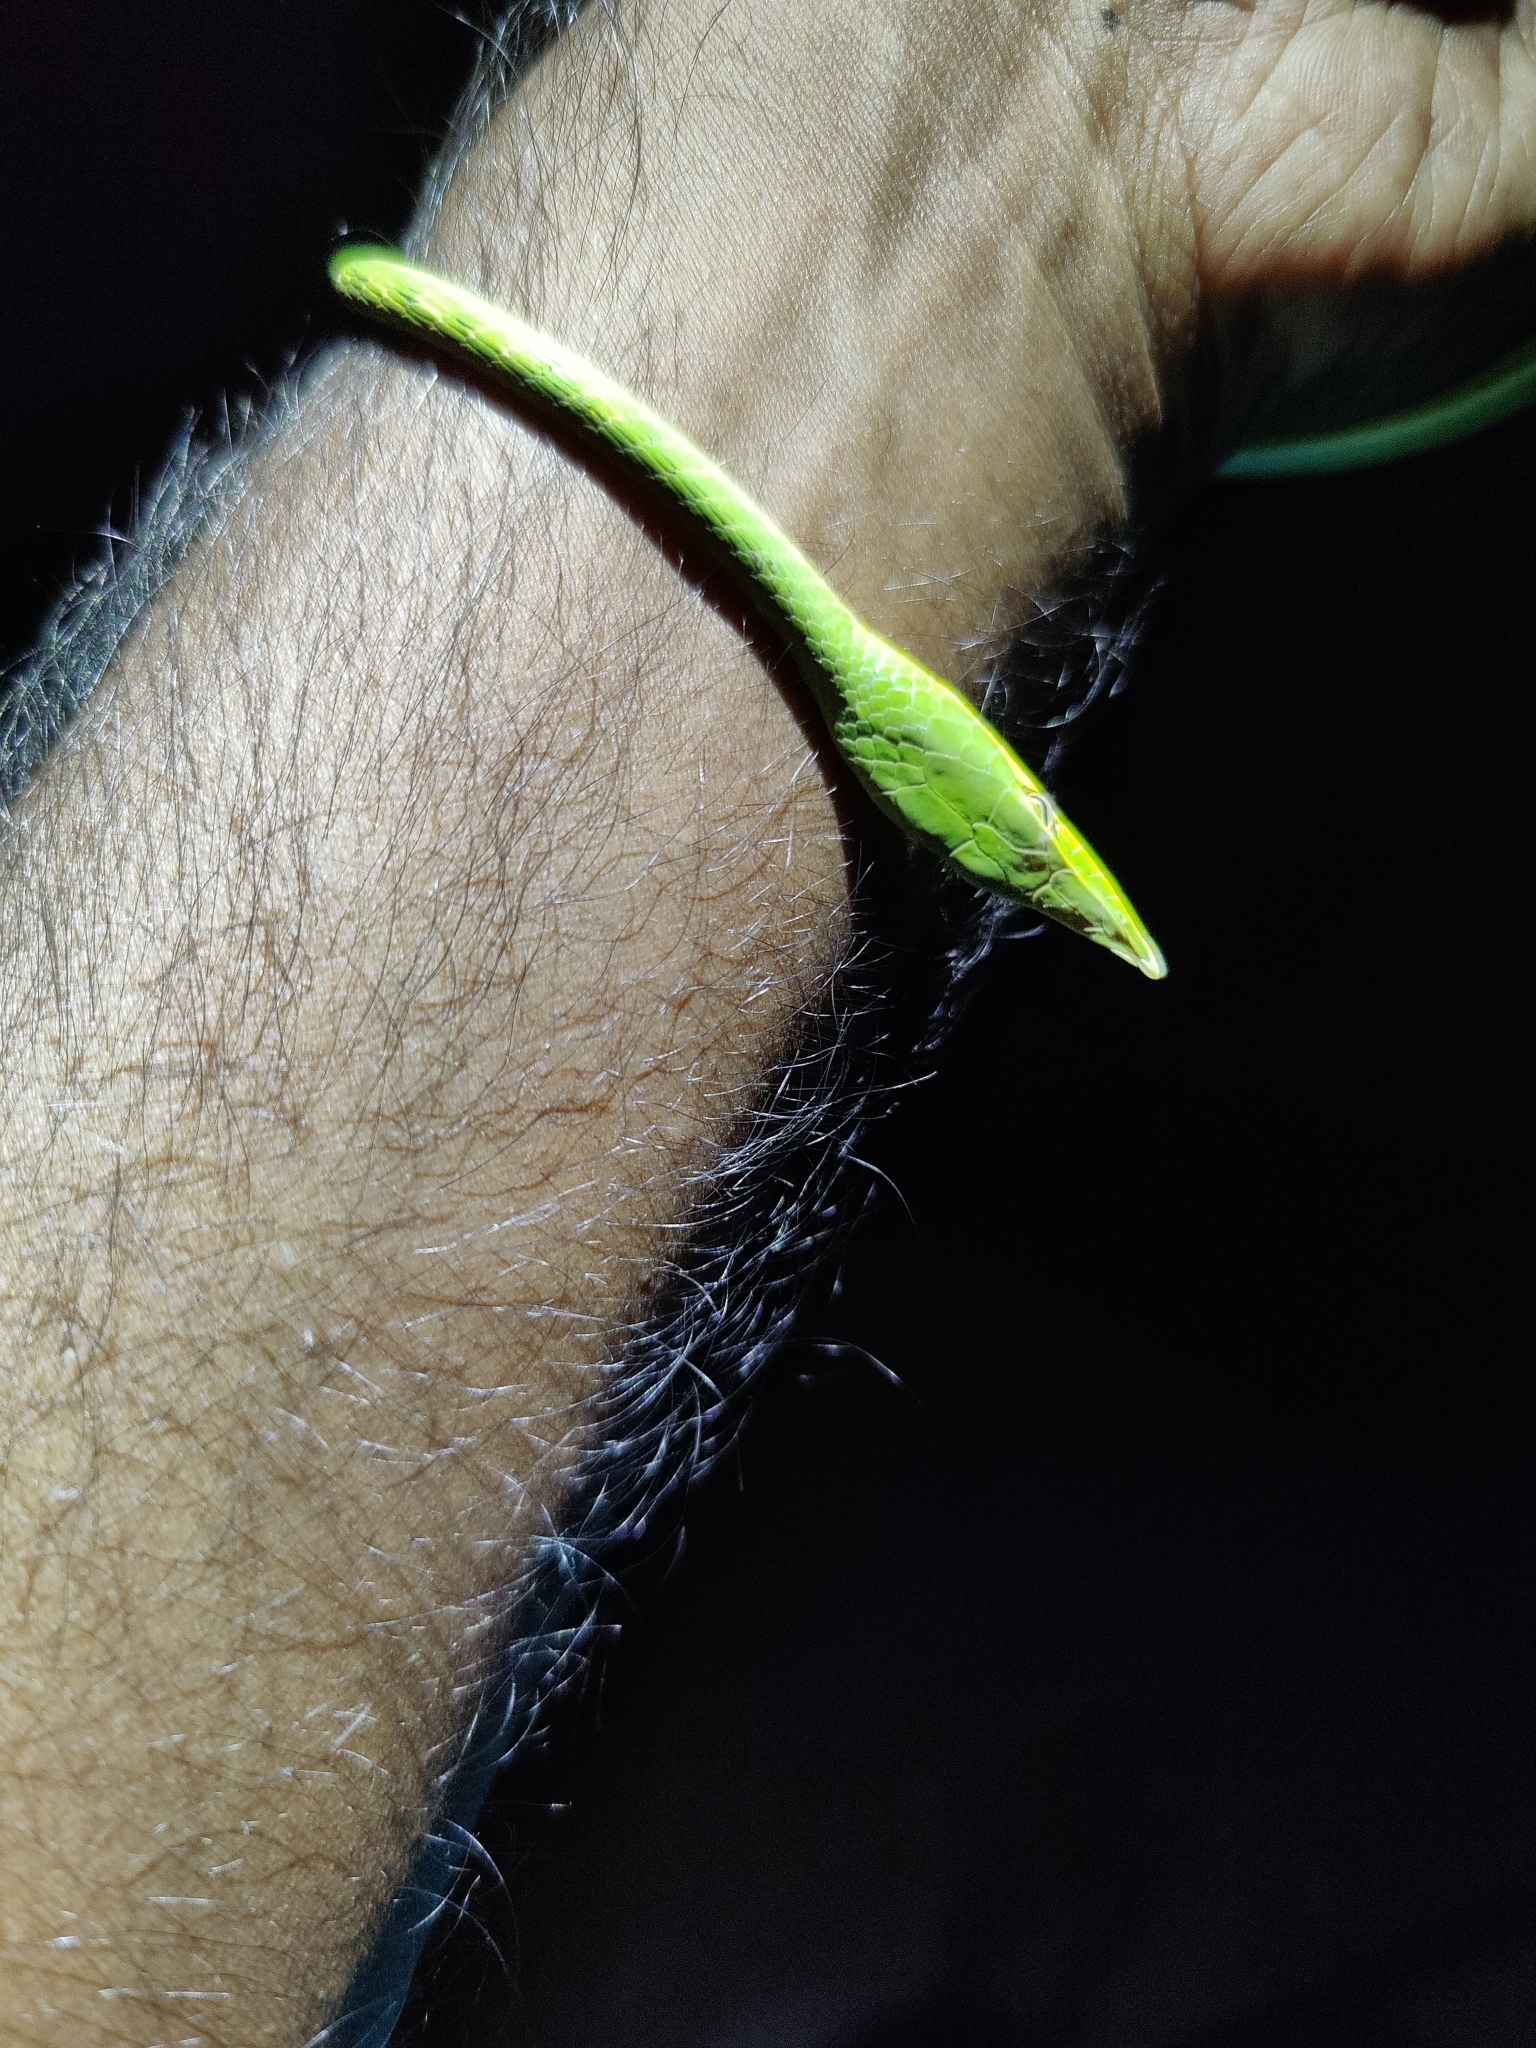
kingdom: Animalia
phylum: Chordata
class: Squamata
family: Colubridae
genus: Ahaetulla
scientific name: Ahaetulla oxyrhyncha
